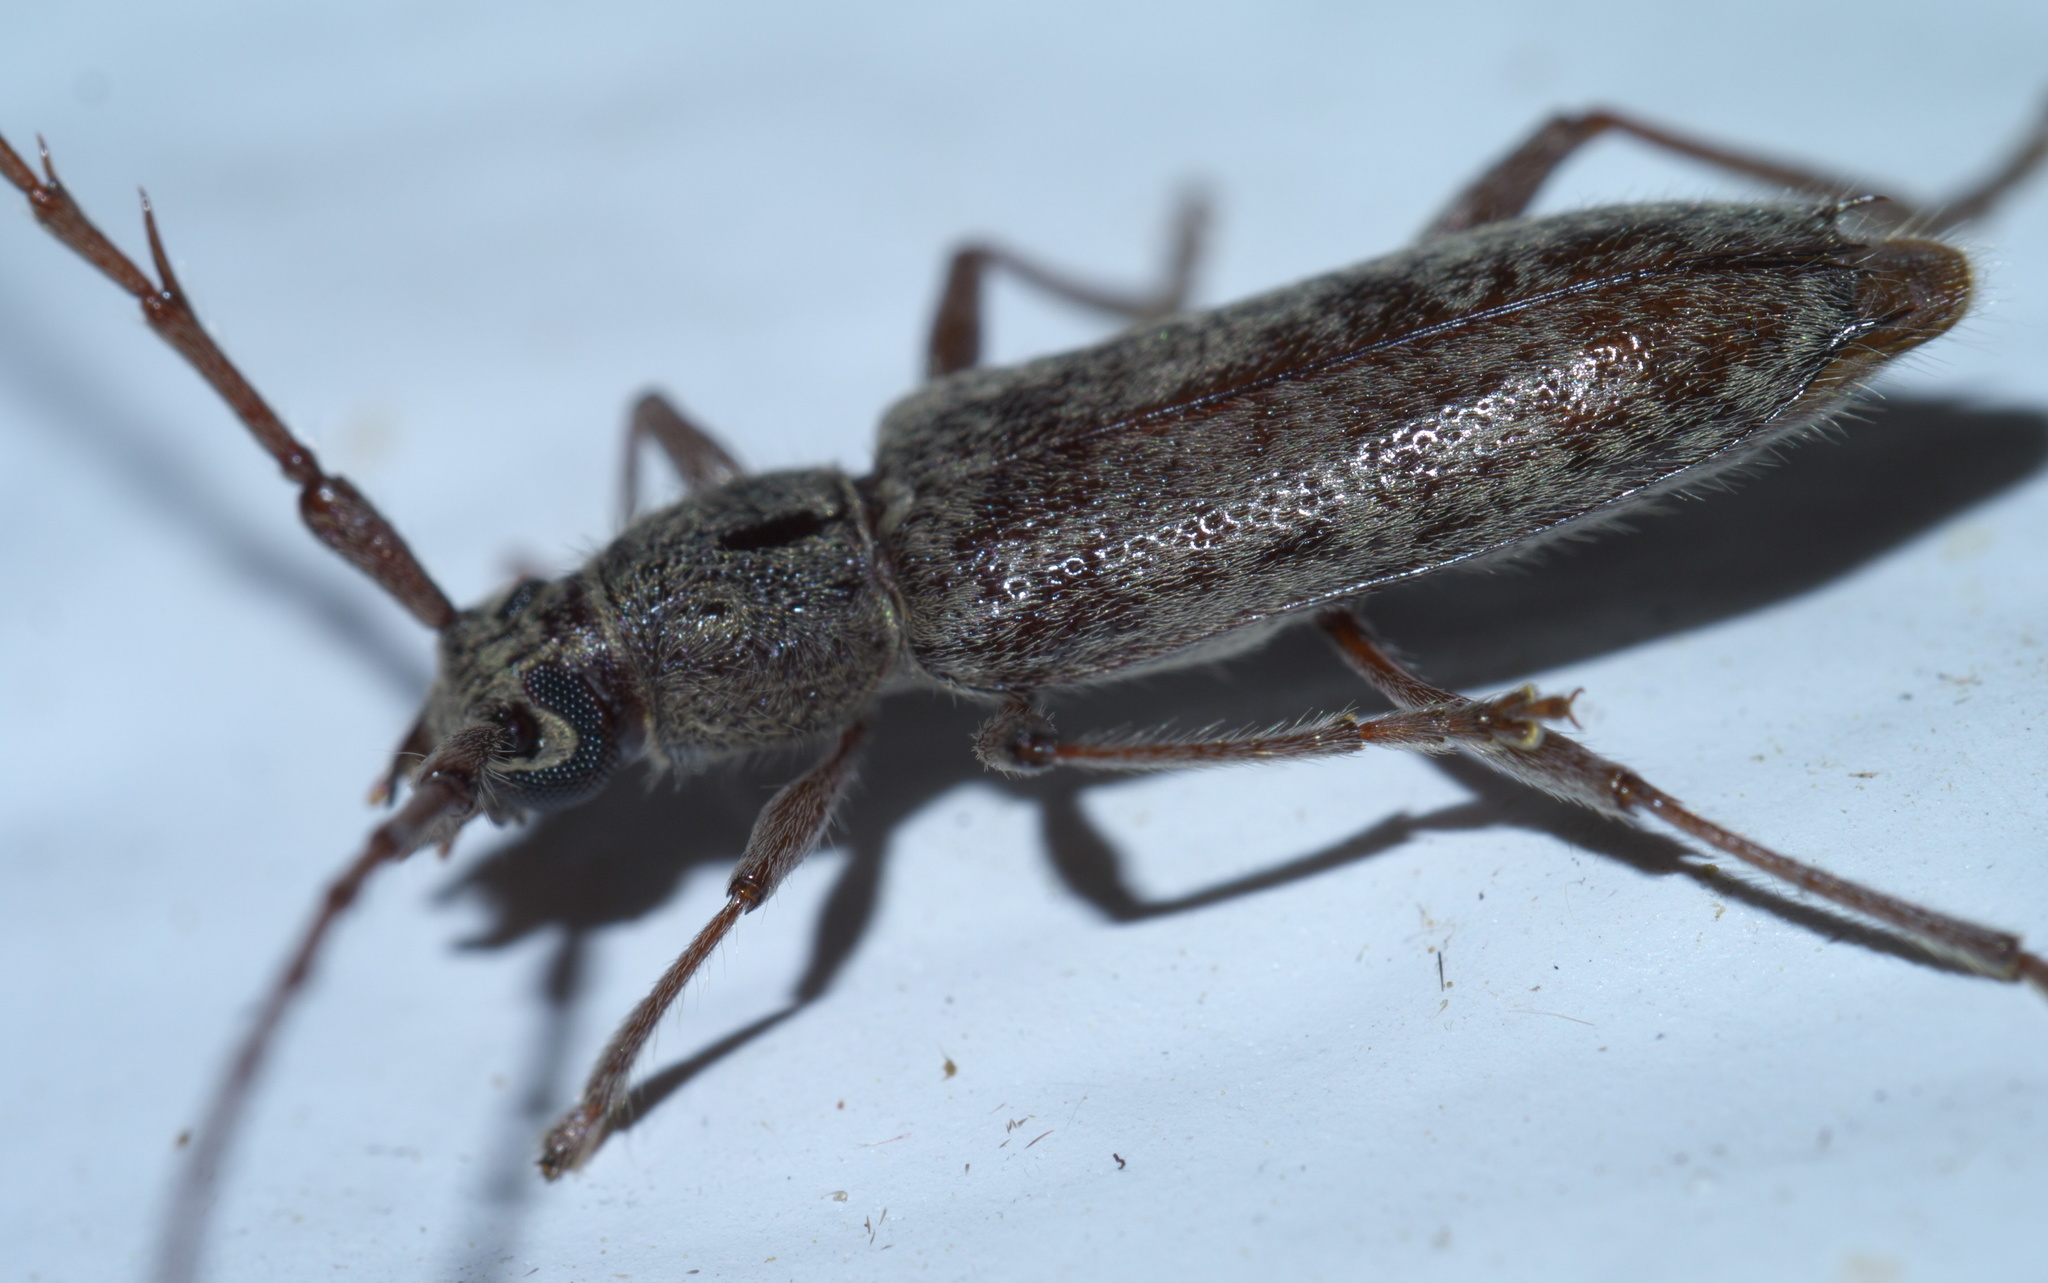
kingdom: Animalia
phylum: Arthropoda
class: Insecta
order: Coleoptera
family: Cerambycidae
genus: Elaphidion
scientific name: Elaphidion mucronatum
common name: Spined oak borer
